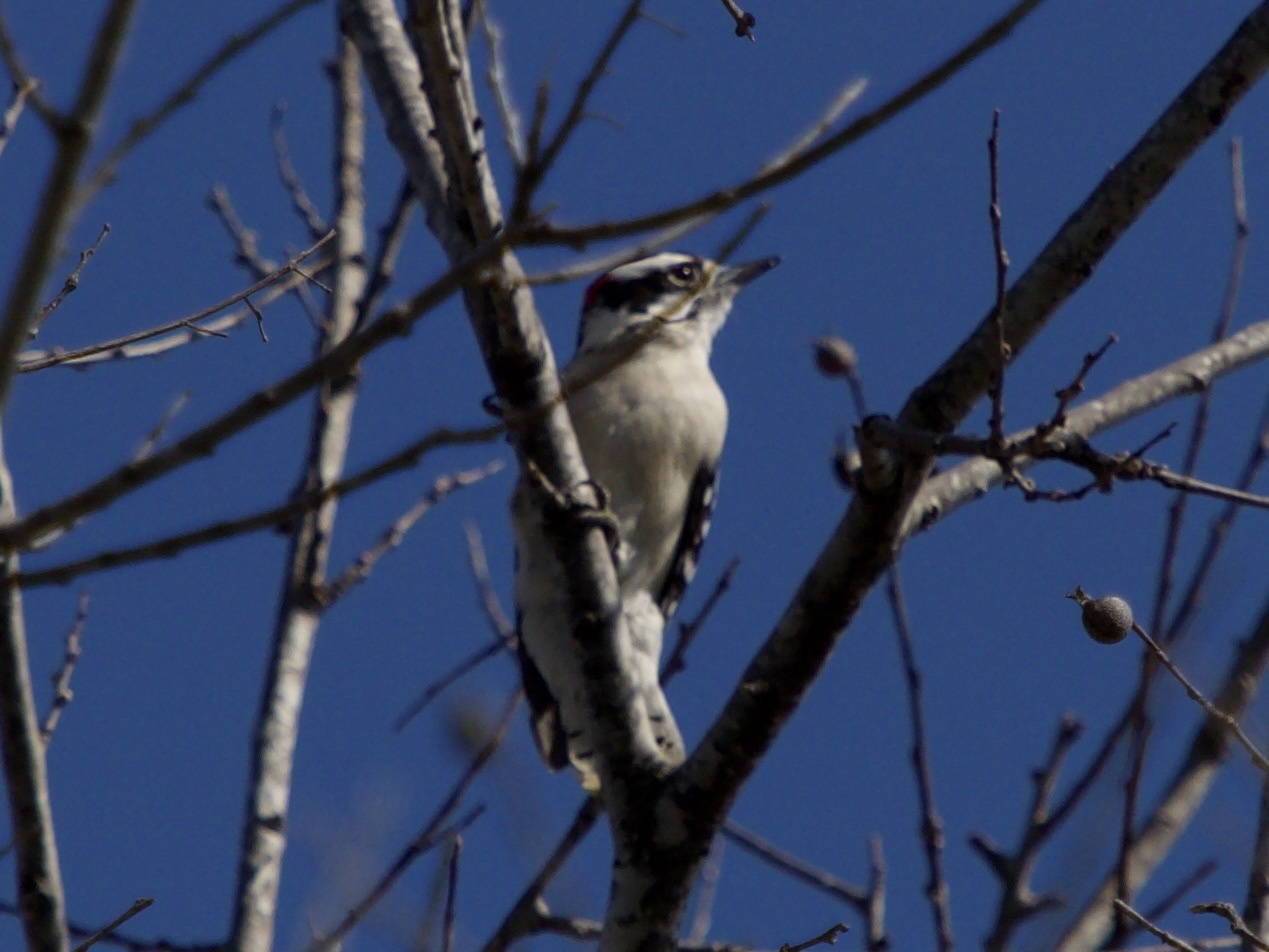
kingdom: Animalia
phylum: Chordata
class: Aves
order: Piciformes
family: Picidae
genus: Dryobates
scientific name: Dryobates pubescens
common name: Downy woodpecker
